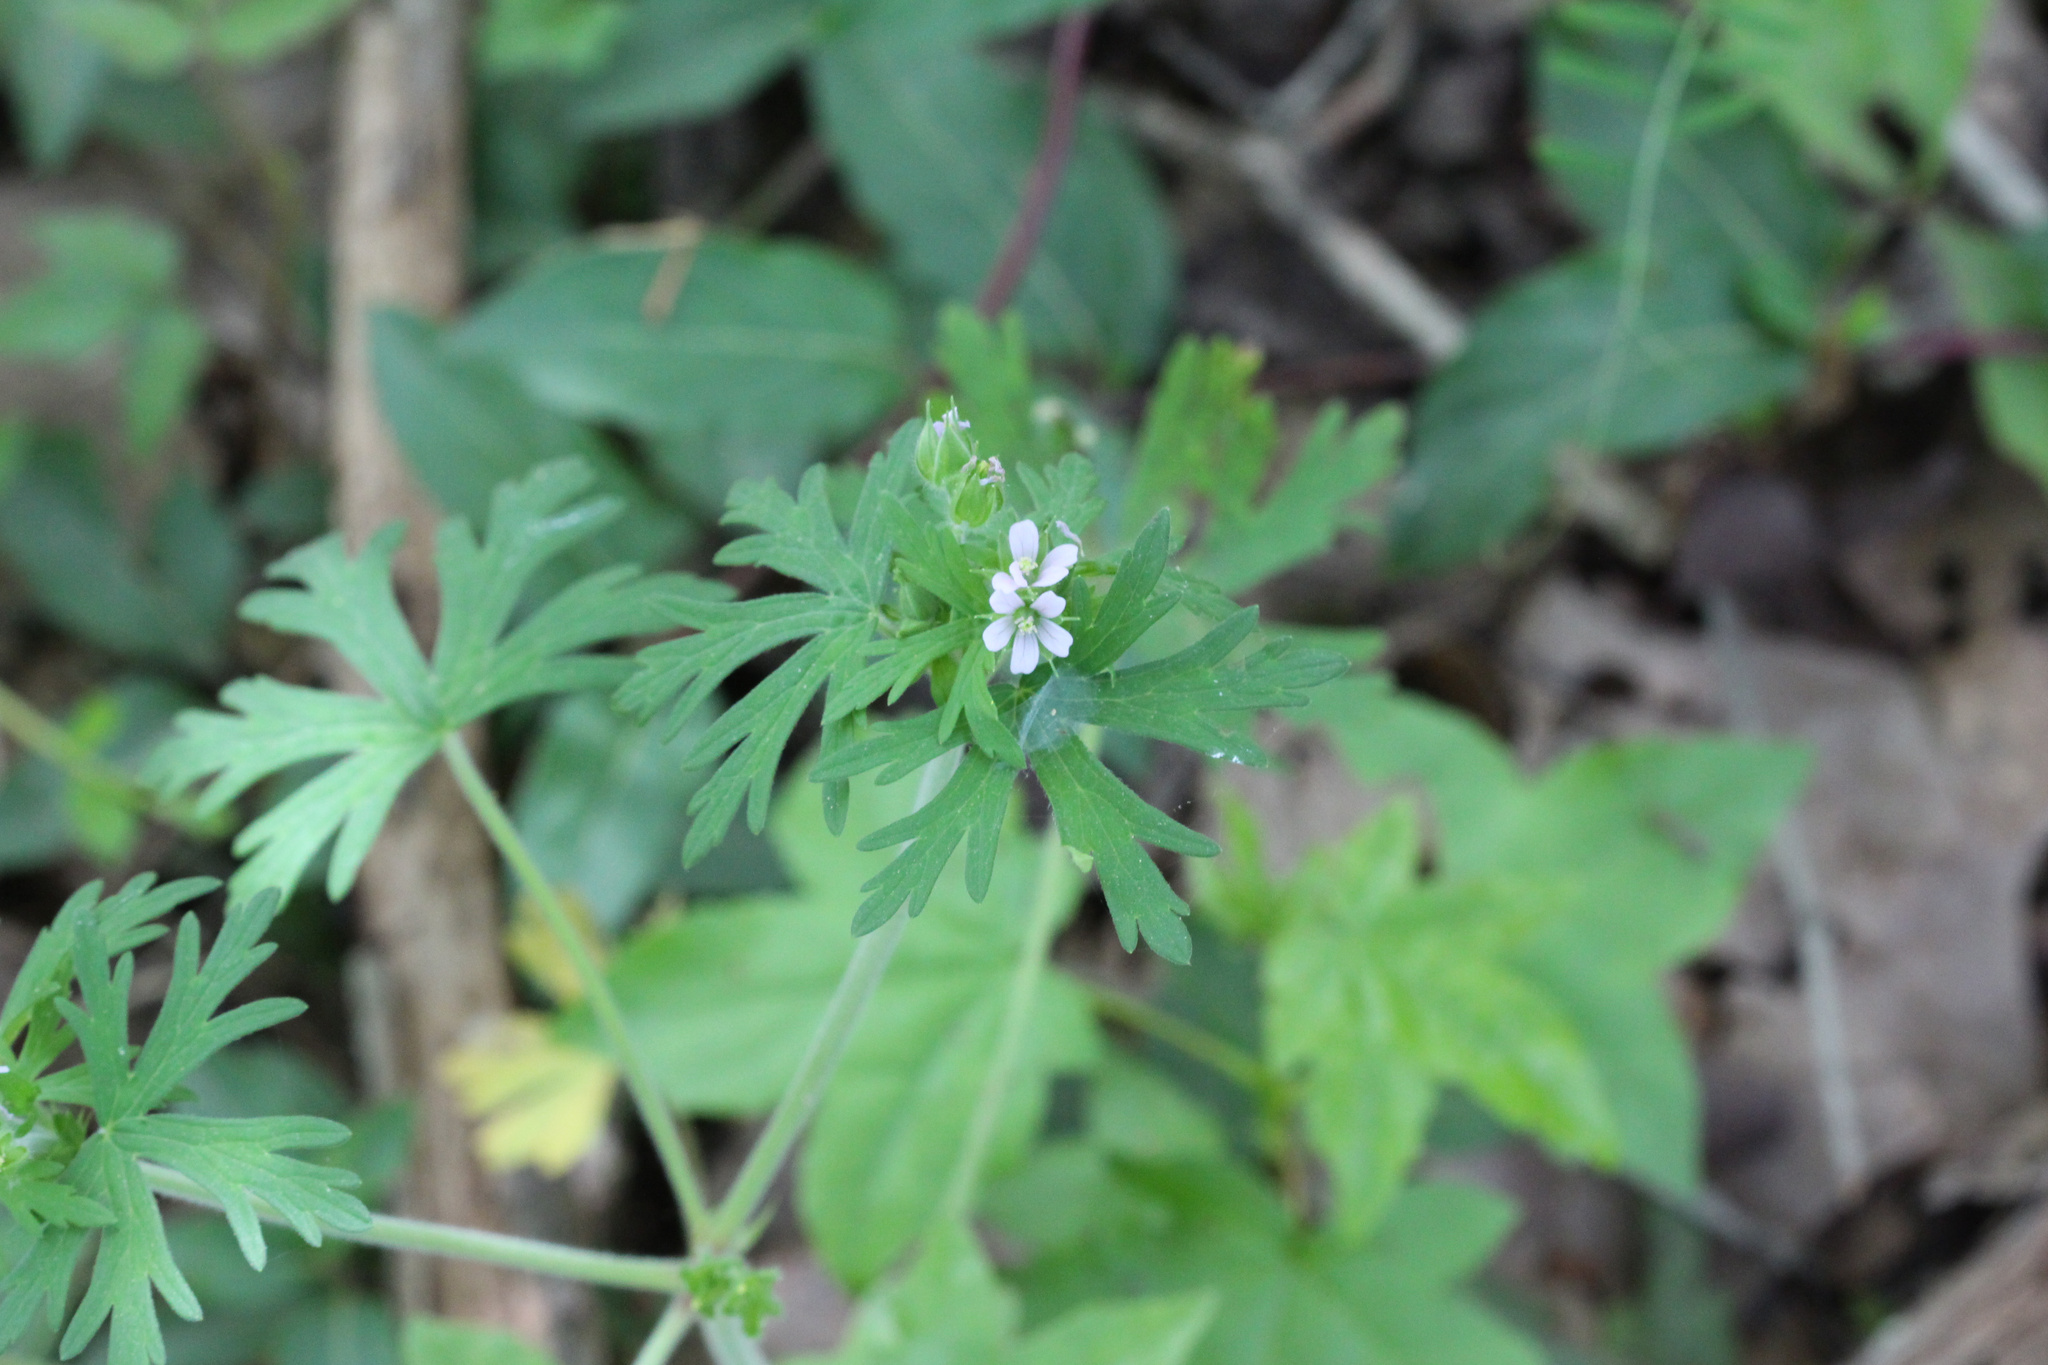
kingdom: Plantae
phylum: Tracheophyta
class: Magnoliopsida
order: Geraniales
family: Geraniaceae
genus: Geranium
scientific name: Geranium carolinianum
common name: Carolina crane's-bill
